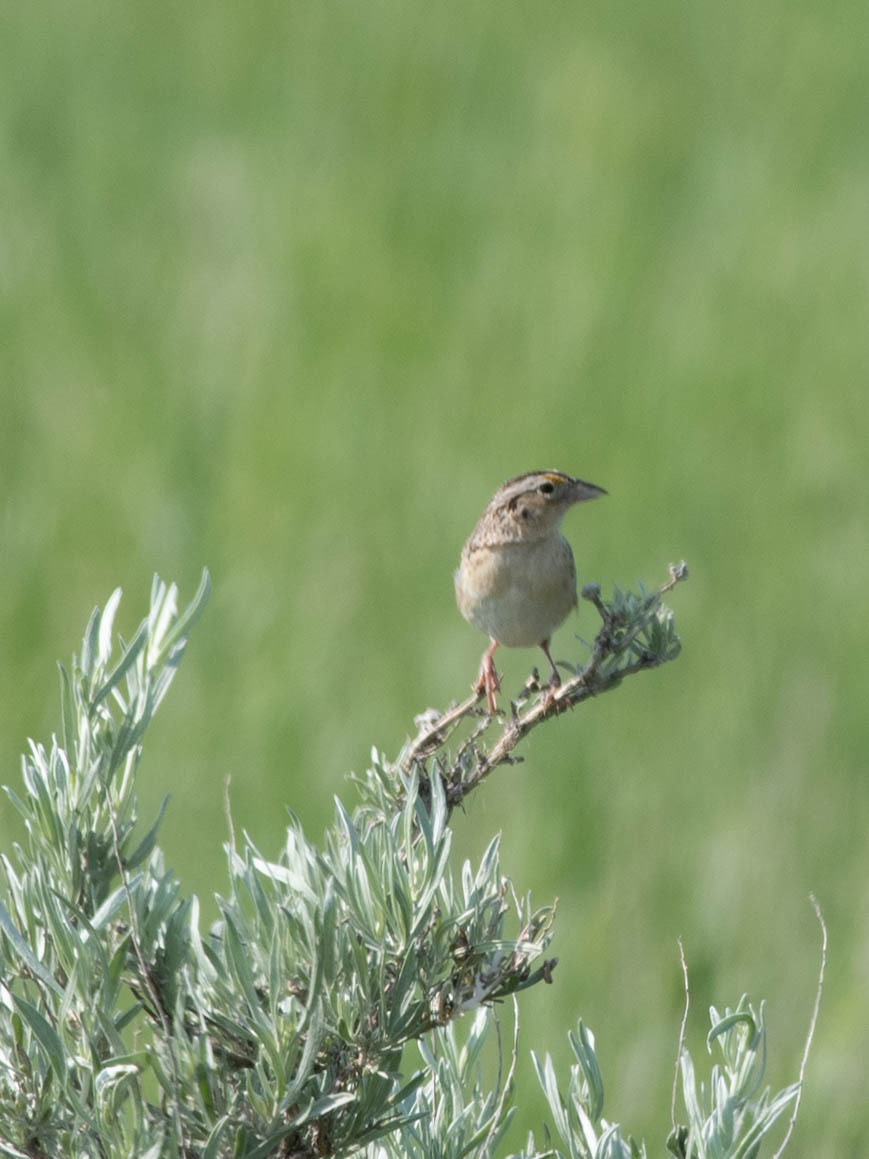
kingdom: Animalia
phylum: Chordata
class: Aves
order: Passeriformes
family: Passerellidae
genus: Ammodramus
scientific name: Ammodramus savannarum
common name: Grasshopper sparrow
